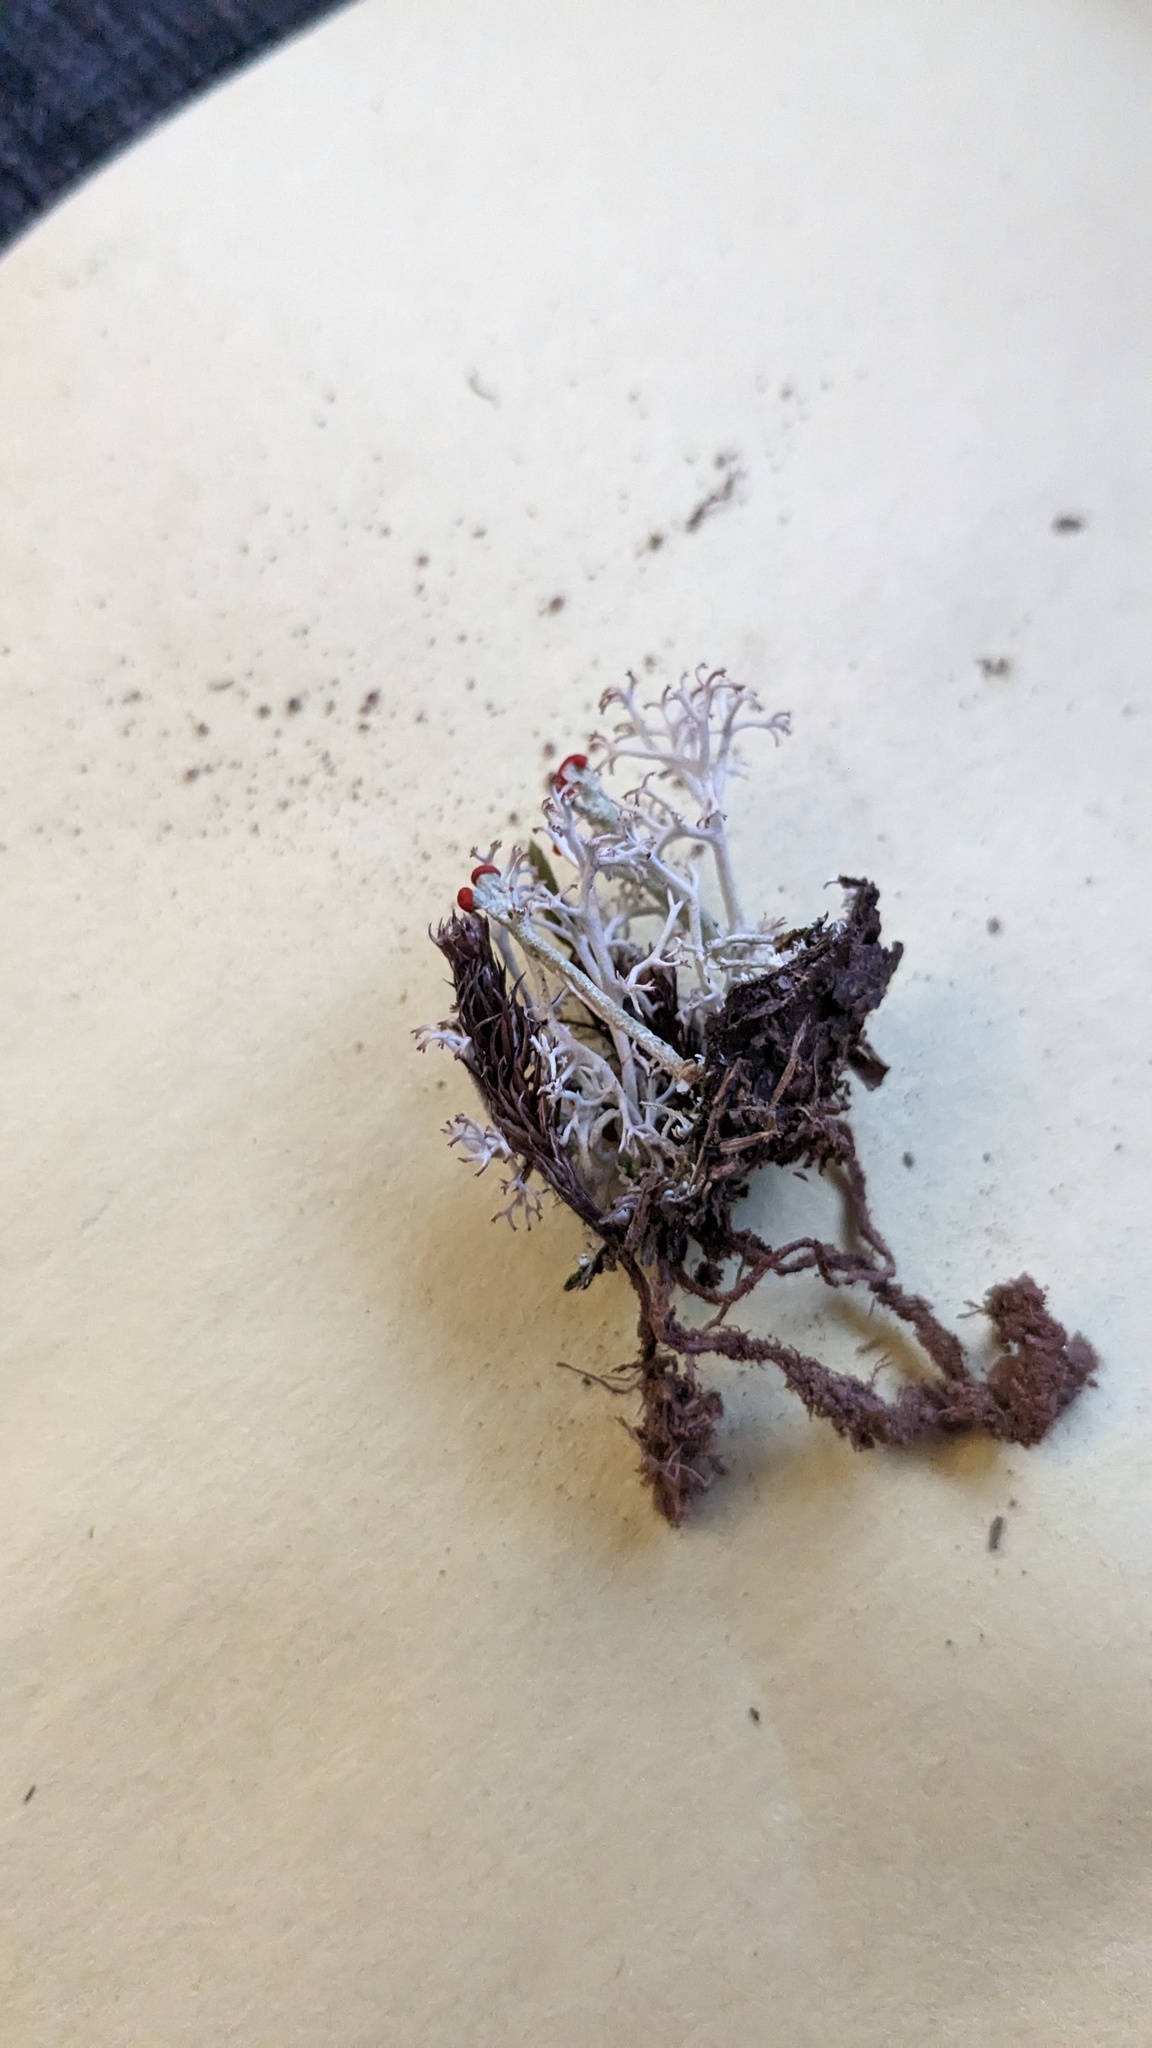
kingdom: Fungi
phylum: Ascomycota
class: Lecanoromycetes
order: Lecanorales
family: Cladoniaceae
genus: Cladonia
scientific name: Cladonia cristatella
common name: British soldier lichen
